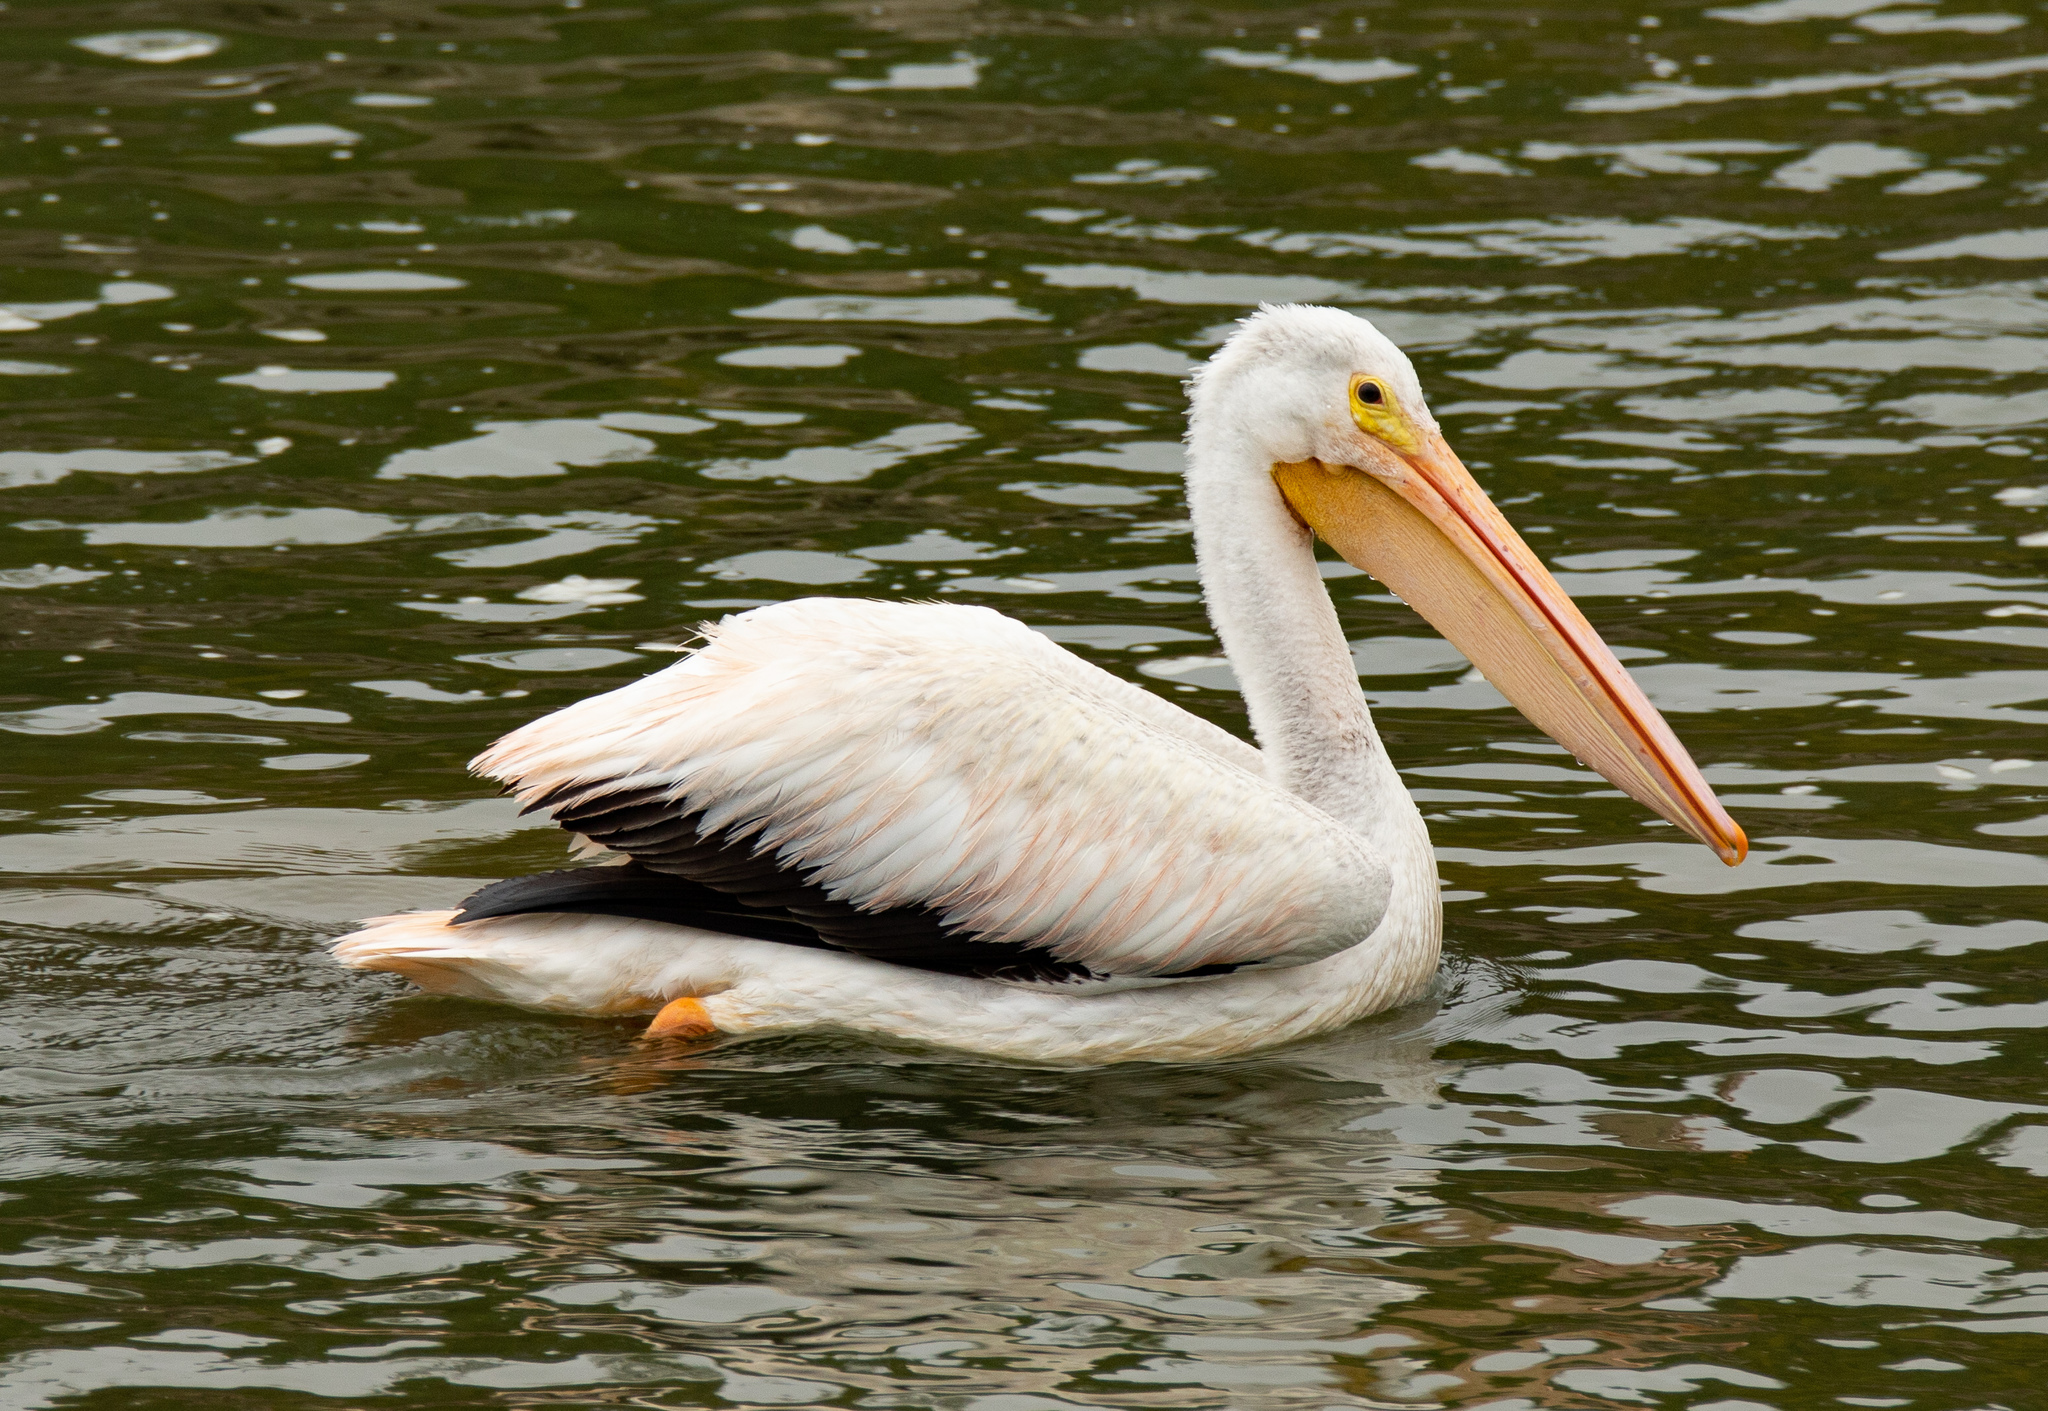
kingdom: Animalia
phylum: Chordata
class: Aves
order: Pelecaniformes
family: Pelecanidae
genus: Pelecanus
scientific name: Pelecanus erythrorhynchos
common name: American white pelican
